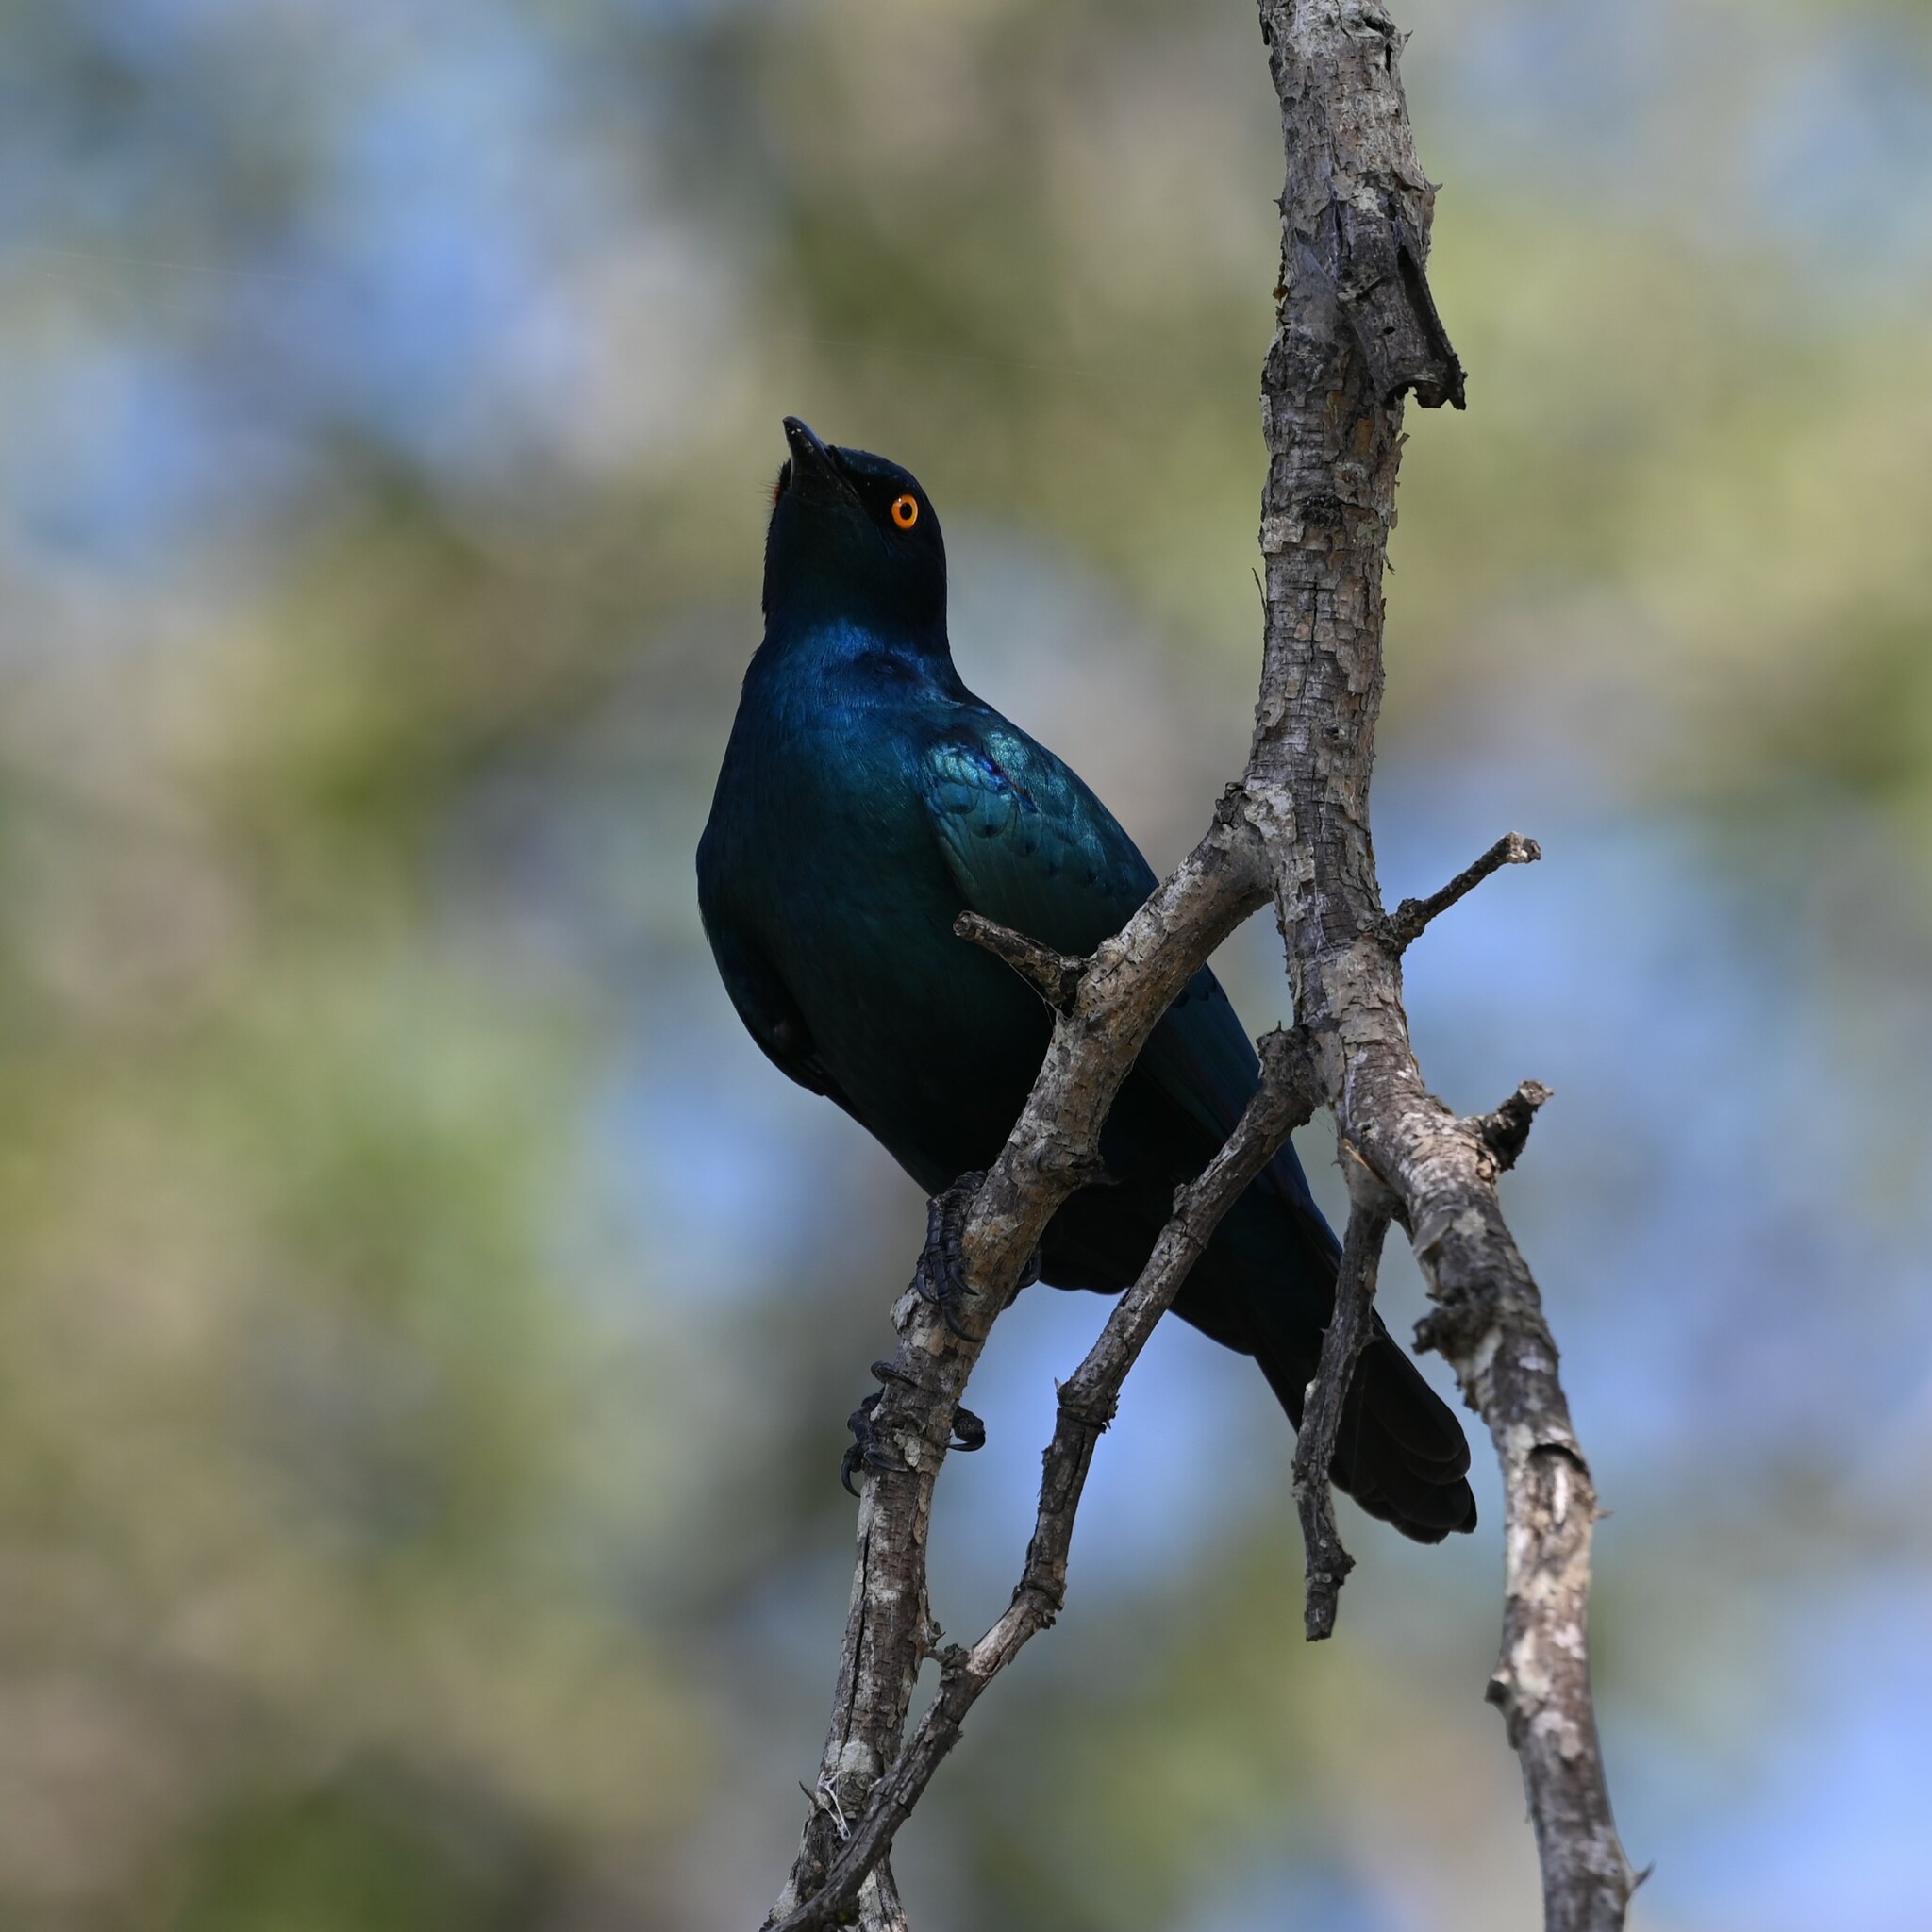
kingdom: Animalia
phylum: Chordata
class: Aves
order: Passeriformes
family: Sturnidae
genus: Lamprotornis
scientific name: Lamprotornis nitens
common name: Cape starling
